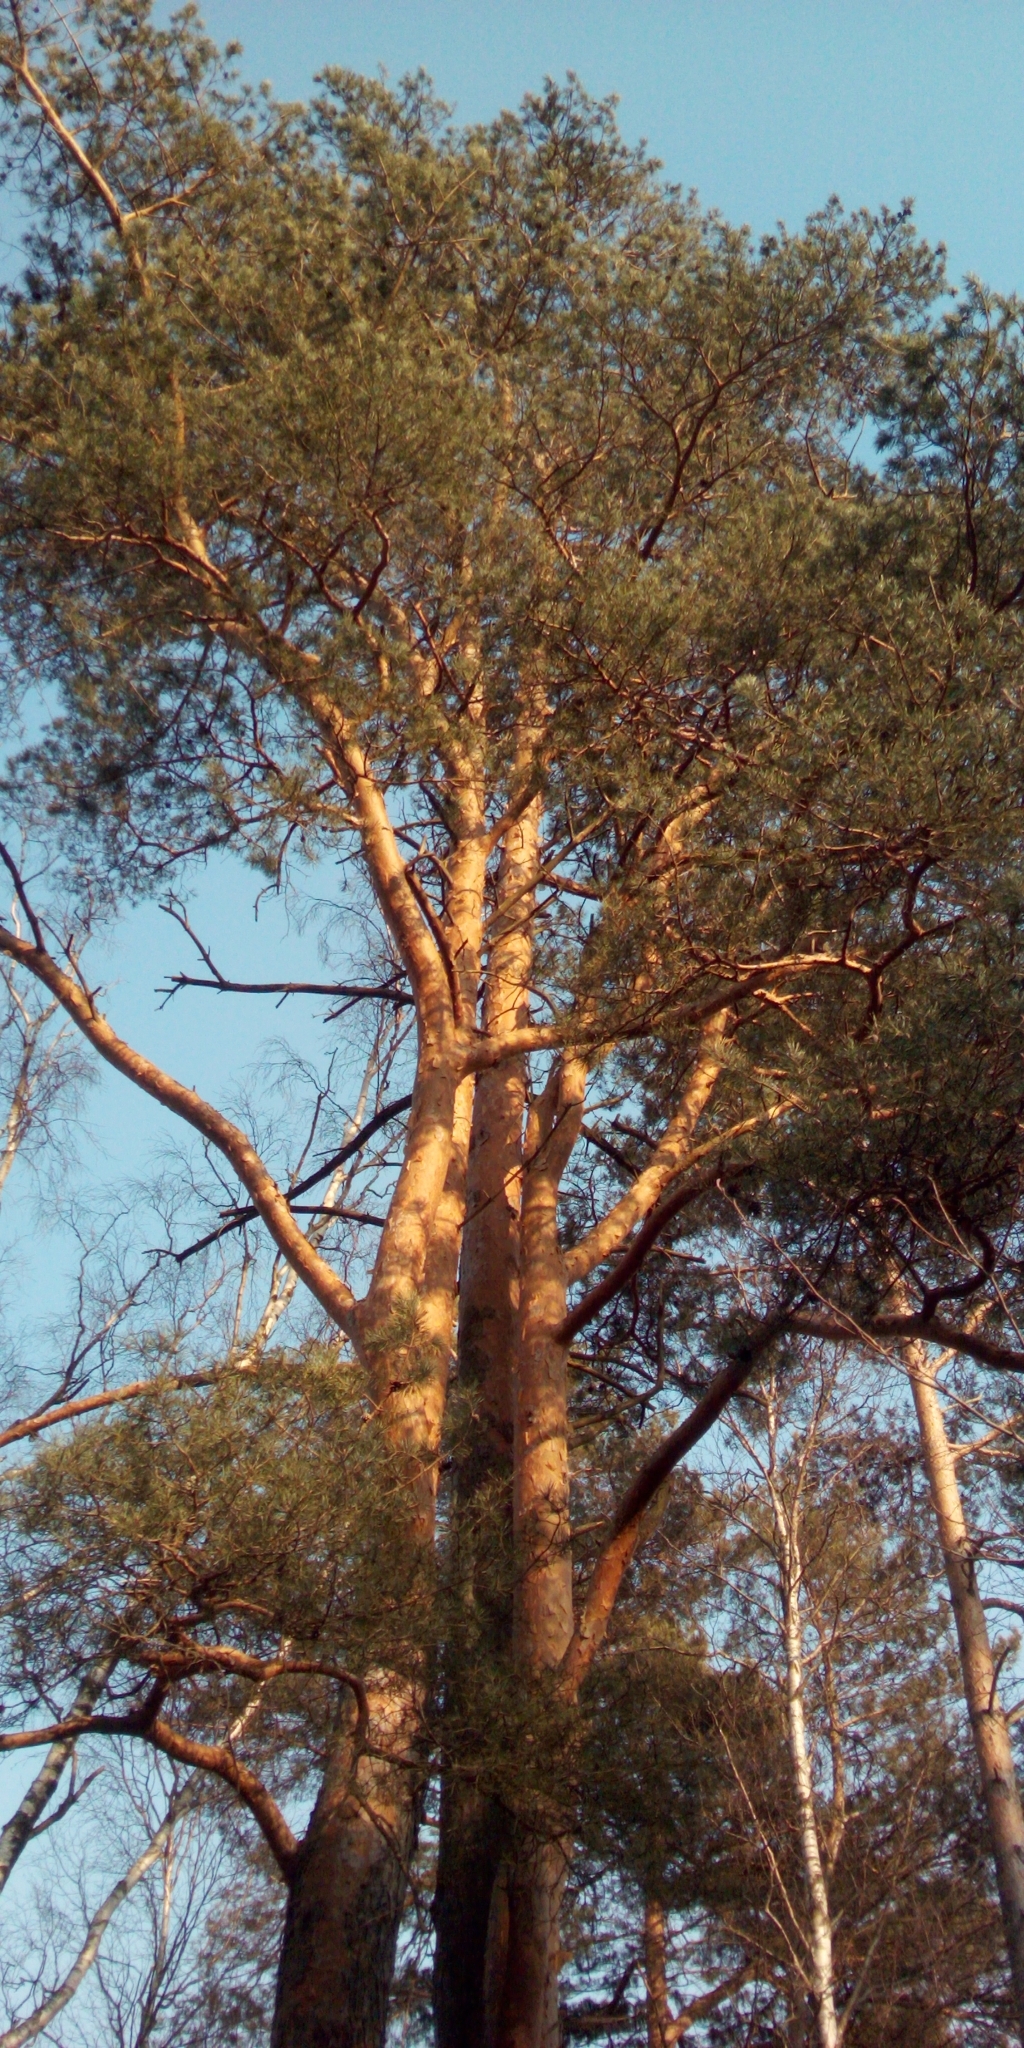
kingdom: Plantae
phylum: Tracheophyta
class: Pinopsida
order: Pinales
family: Pinaceae
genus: Pinus
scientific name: Pinus sylvestris
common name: Scots pine
